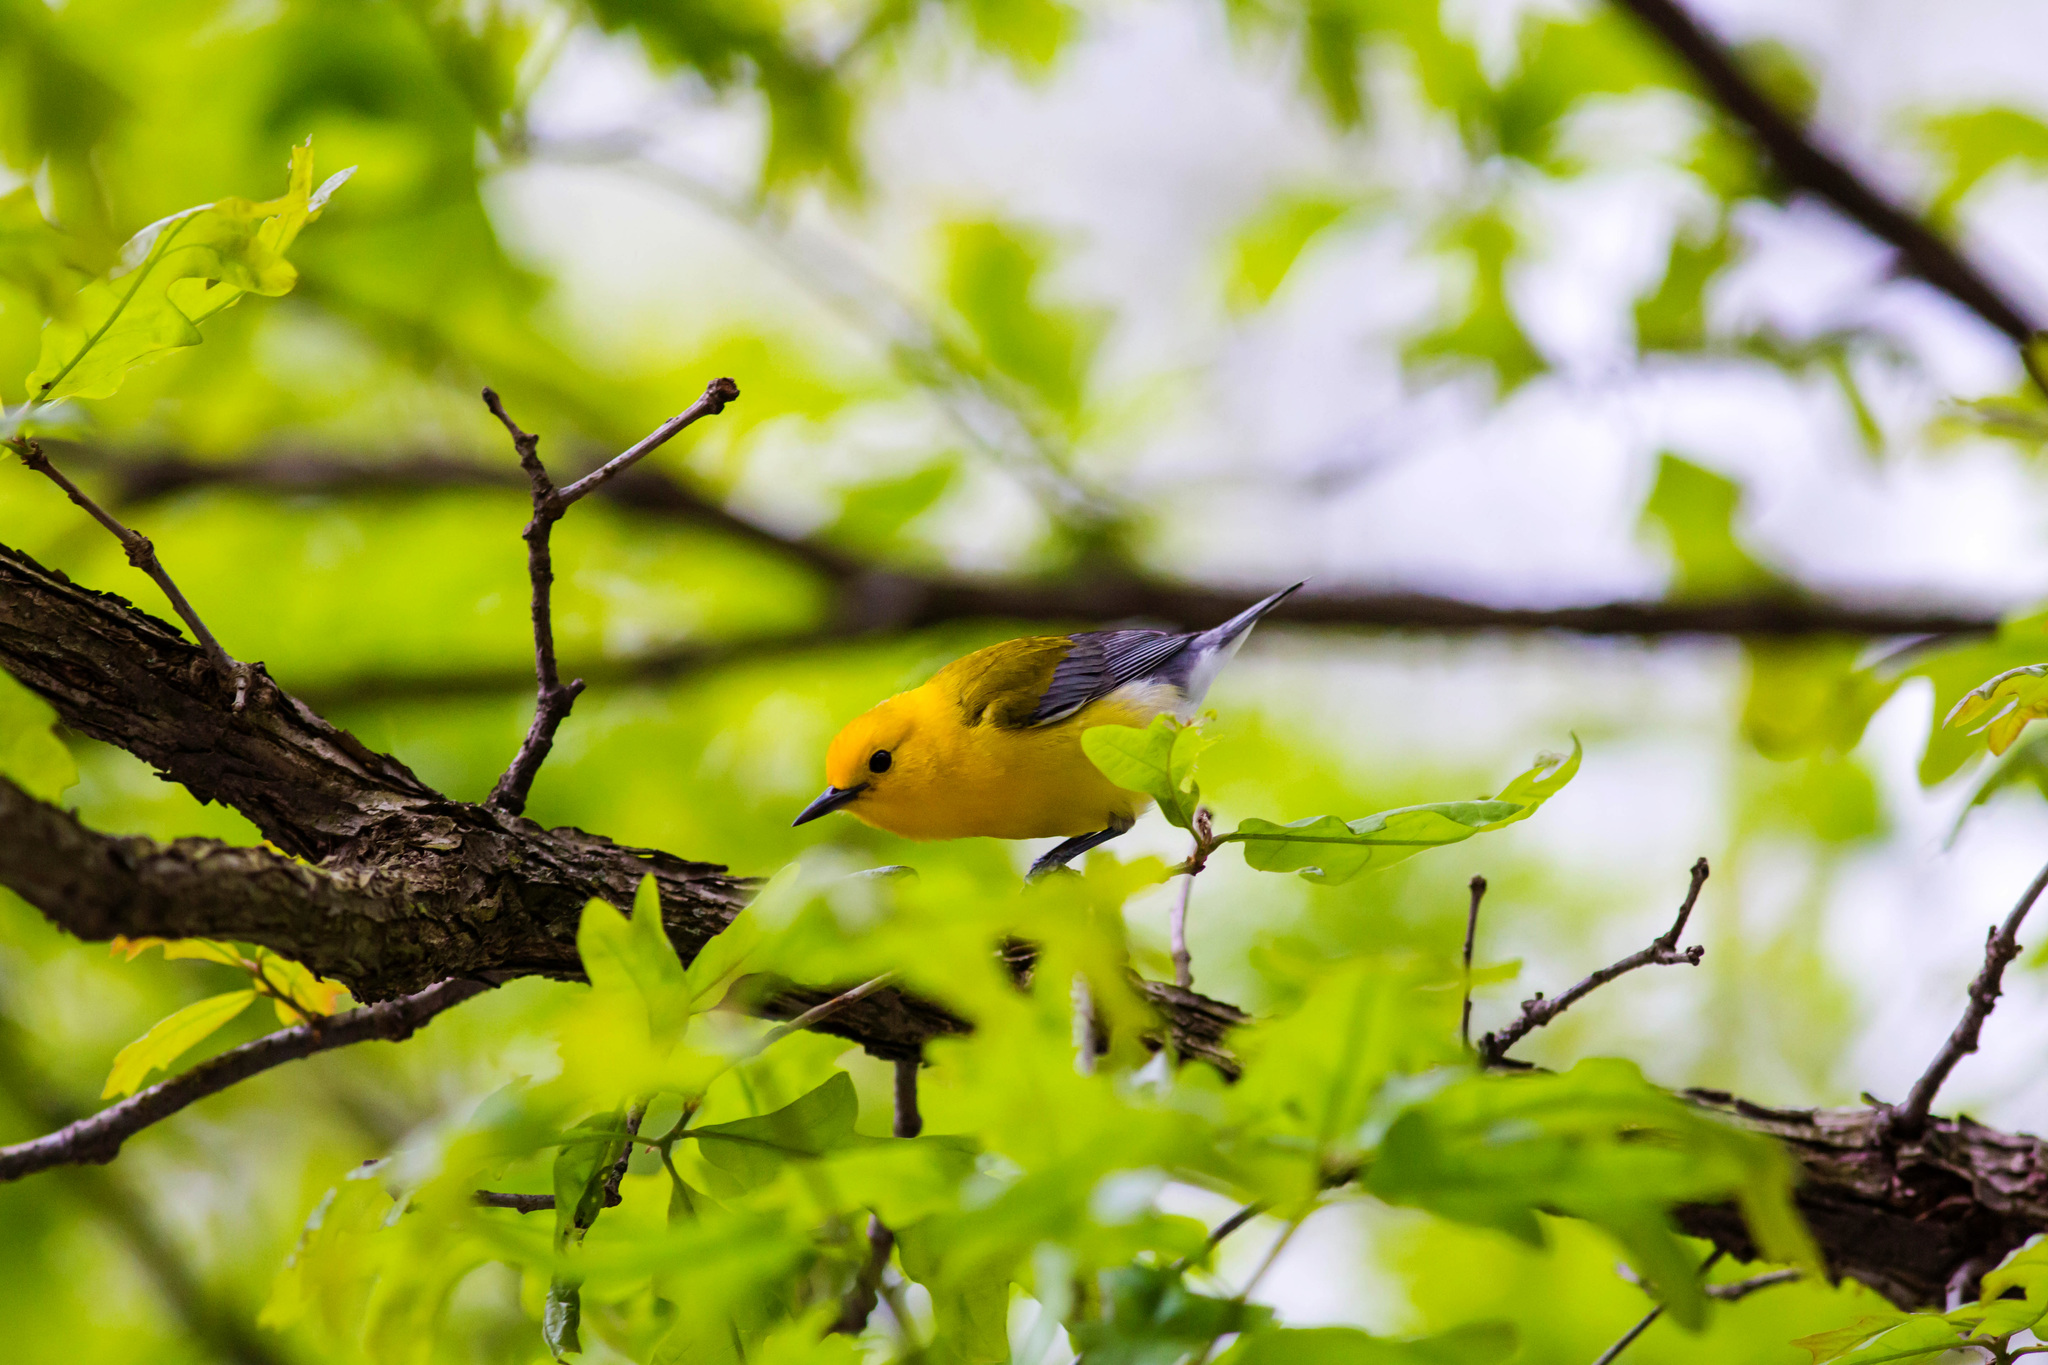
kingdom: Animalia
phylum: Chordata
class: Aves
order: Passeriformes
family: Parulidae
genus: Protonotaria
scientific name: Protonotaria citrea
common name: Prothonotary warbler
